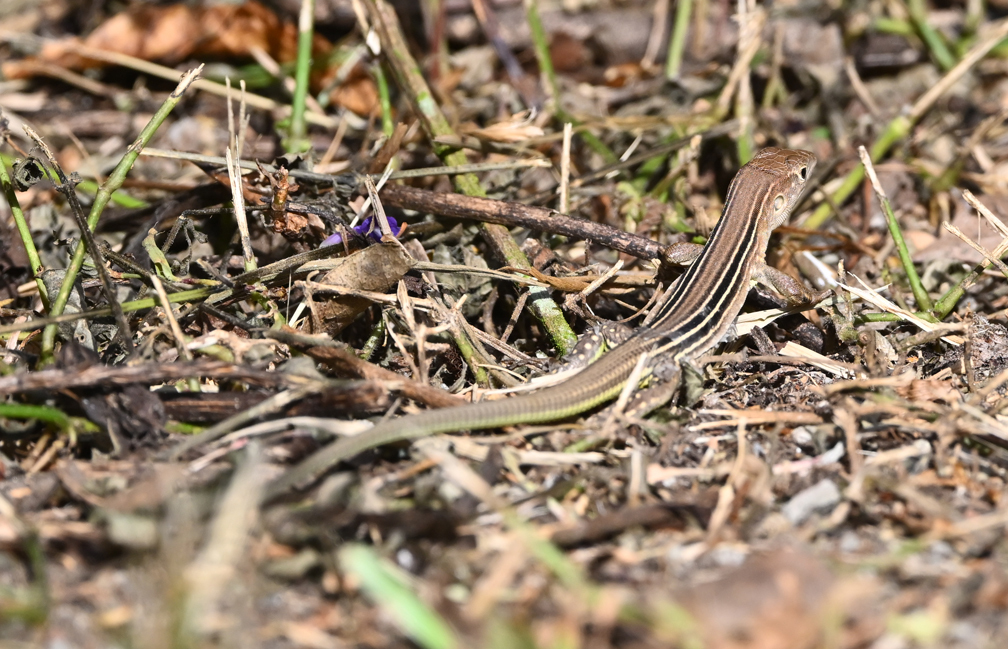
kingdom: Animalia
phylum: Chordata
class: Squamata
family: Teiidae
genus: Cnemidophorus
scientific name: Cnemidophorus lemniscatus
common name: Rainbow whiptail
